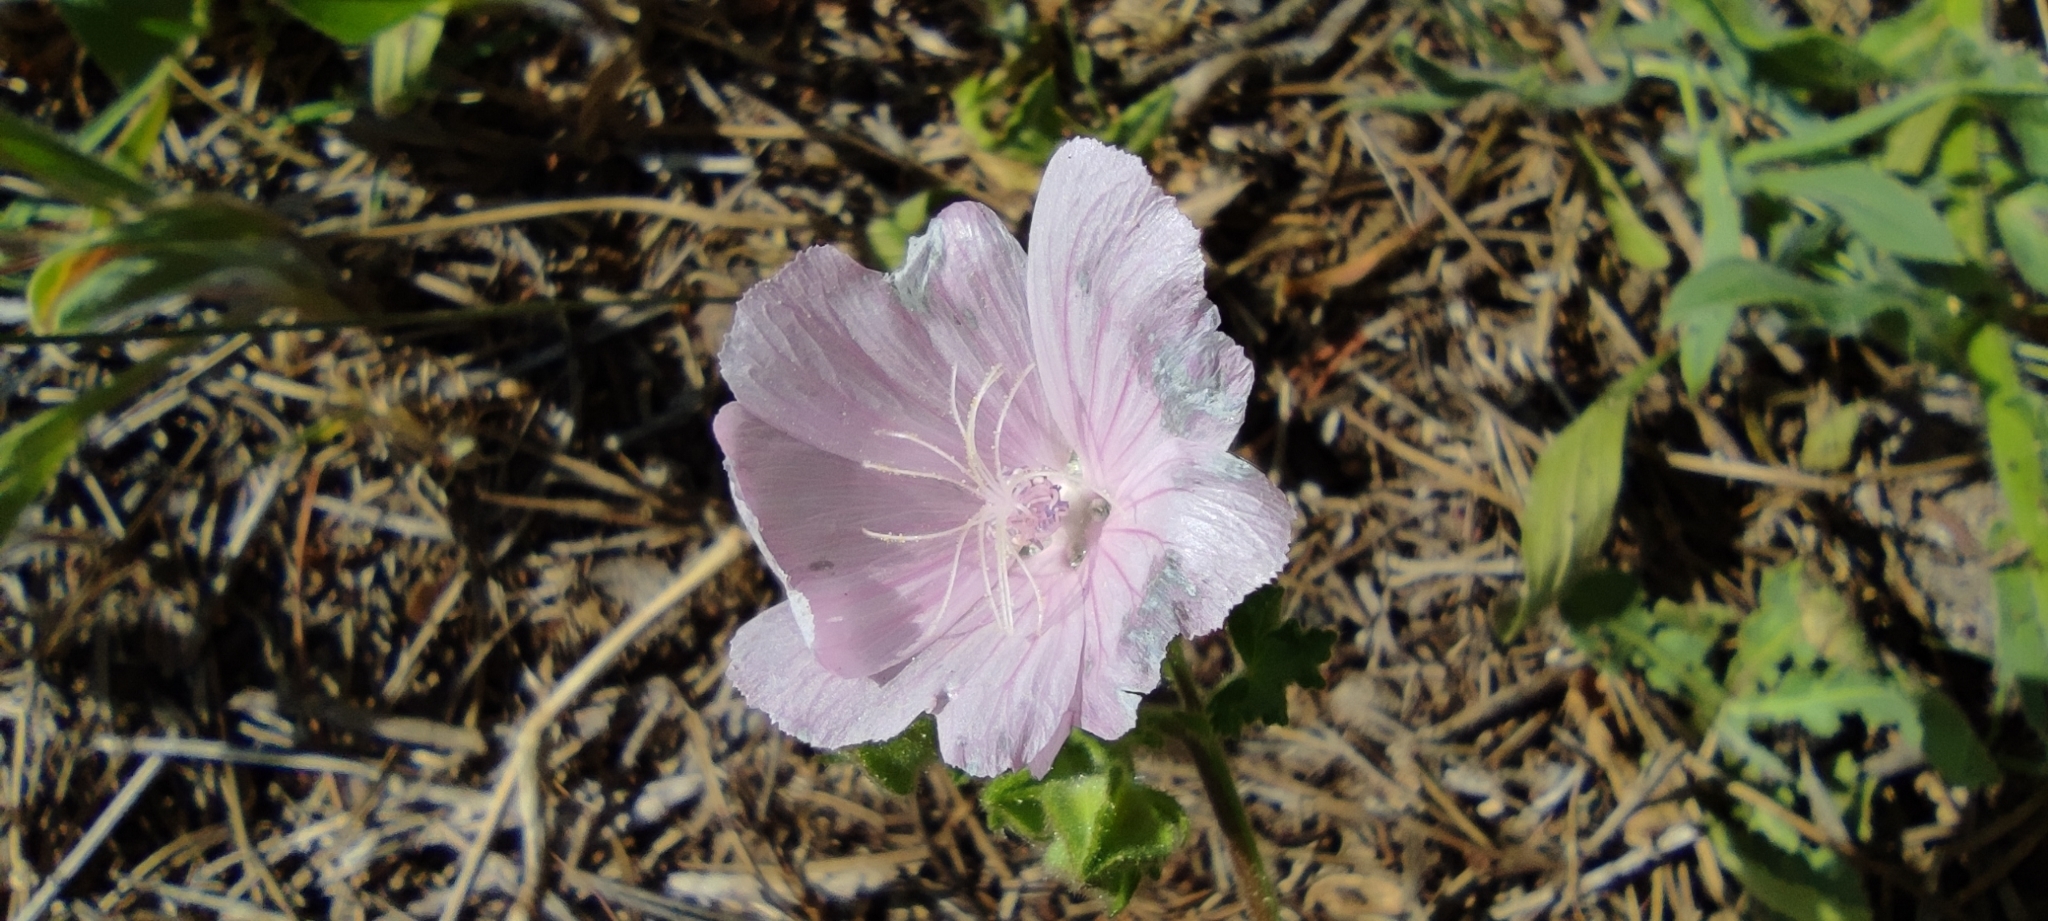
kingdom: Plantae
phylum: Tracheophyta
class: Magnoliopsida
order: Malvales
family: Malvaceae
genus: Malva
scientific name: Malva hispanica
